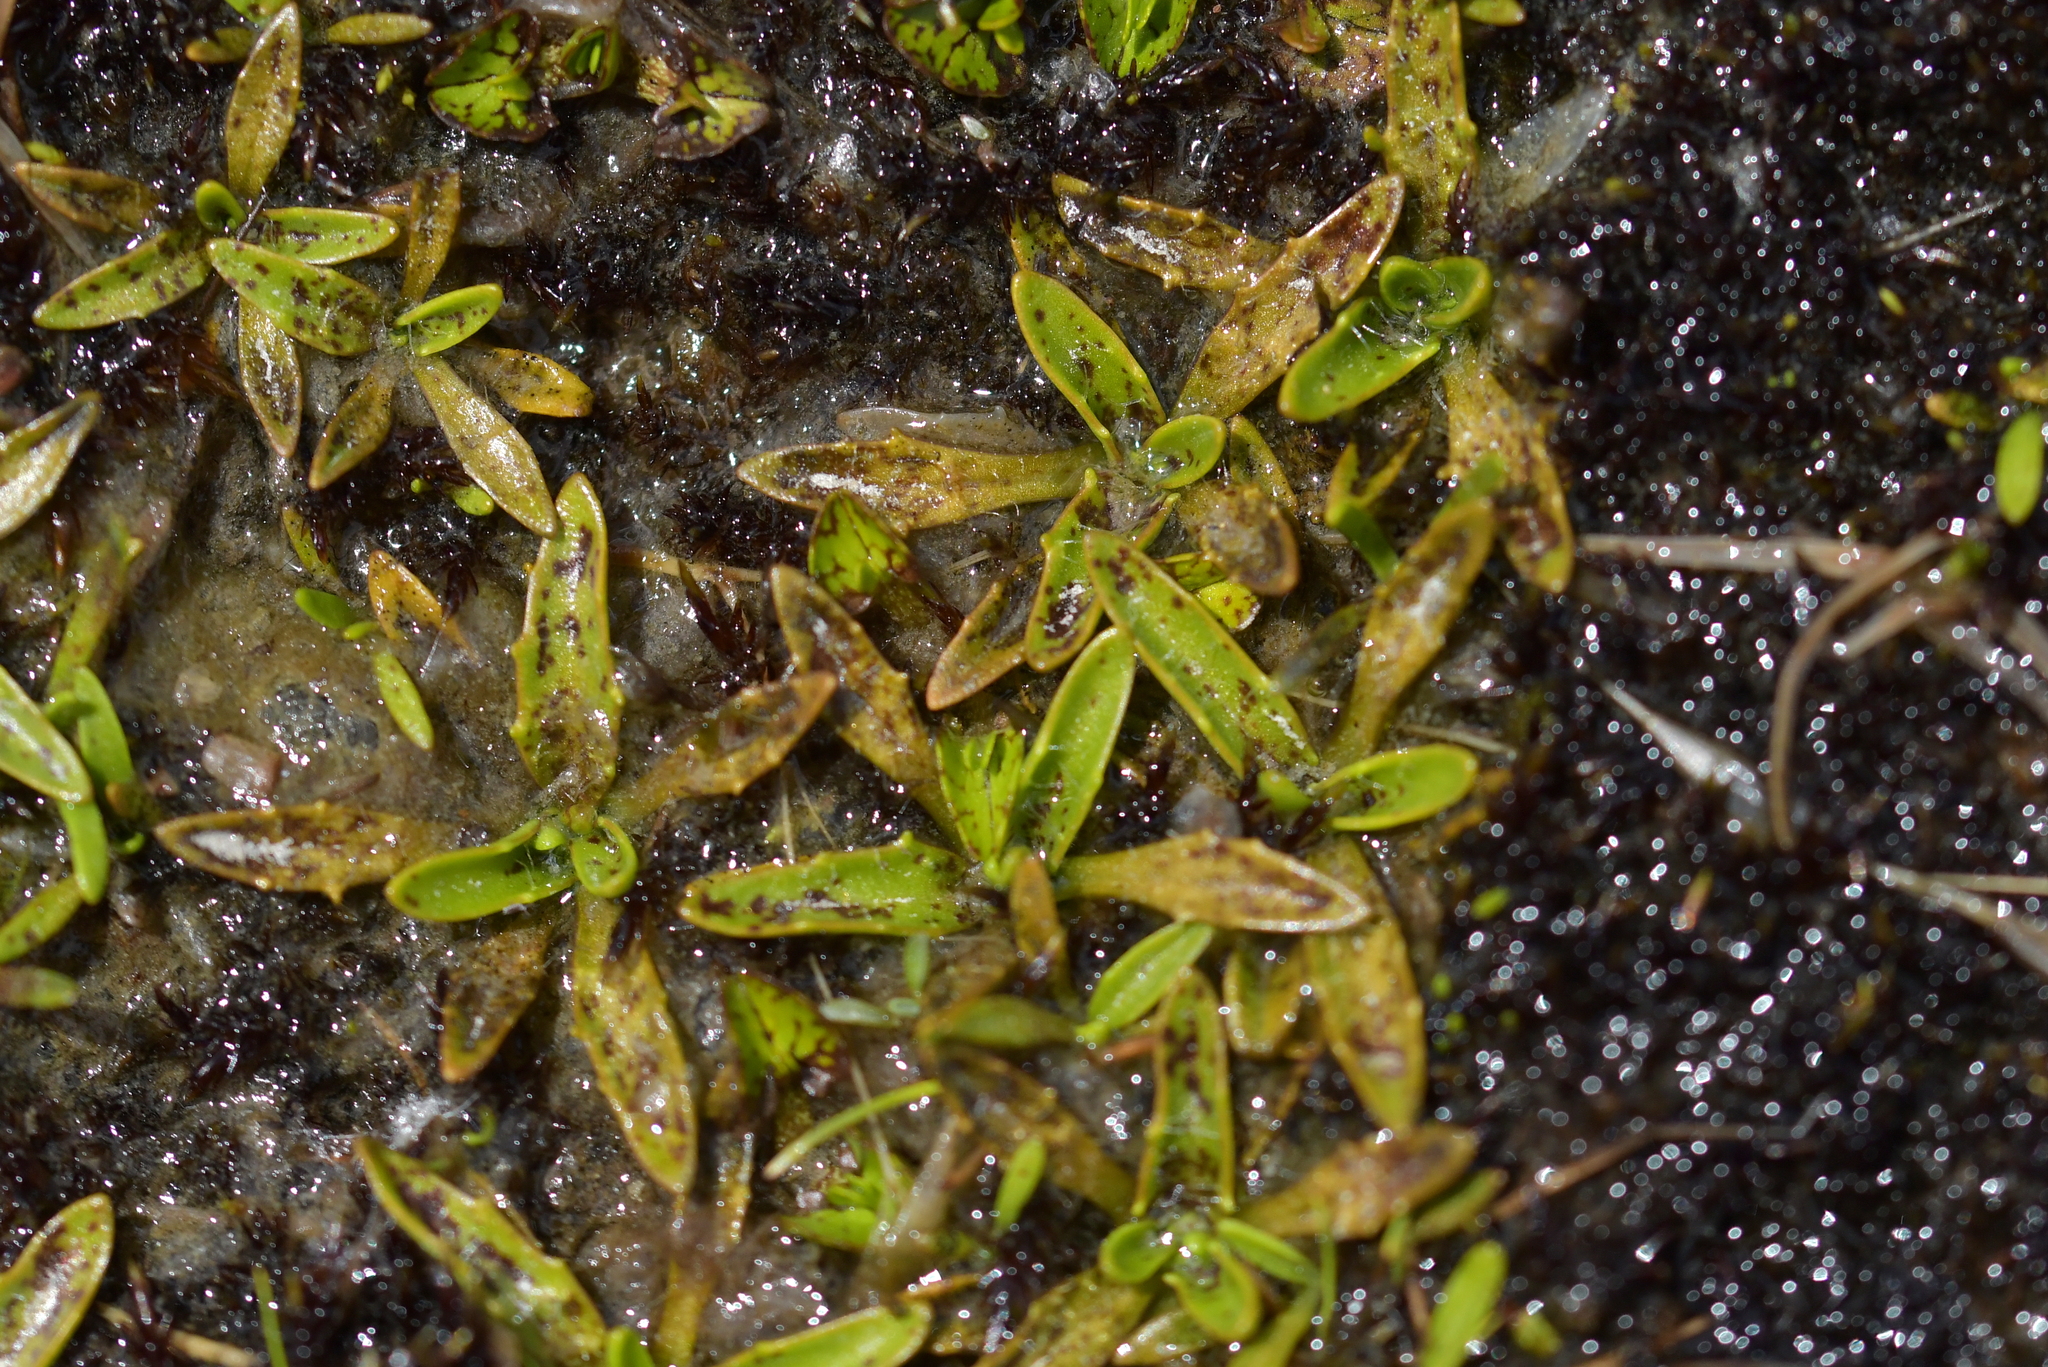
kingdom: Plantae
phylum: Tracheophyta
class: Magnoliopsida
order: Lamiales
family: Plantaginaceae
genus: Plantago
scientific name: Plantago unibracteata
